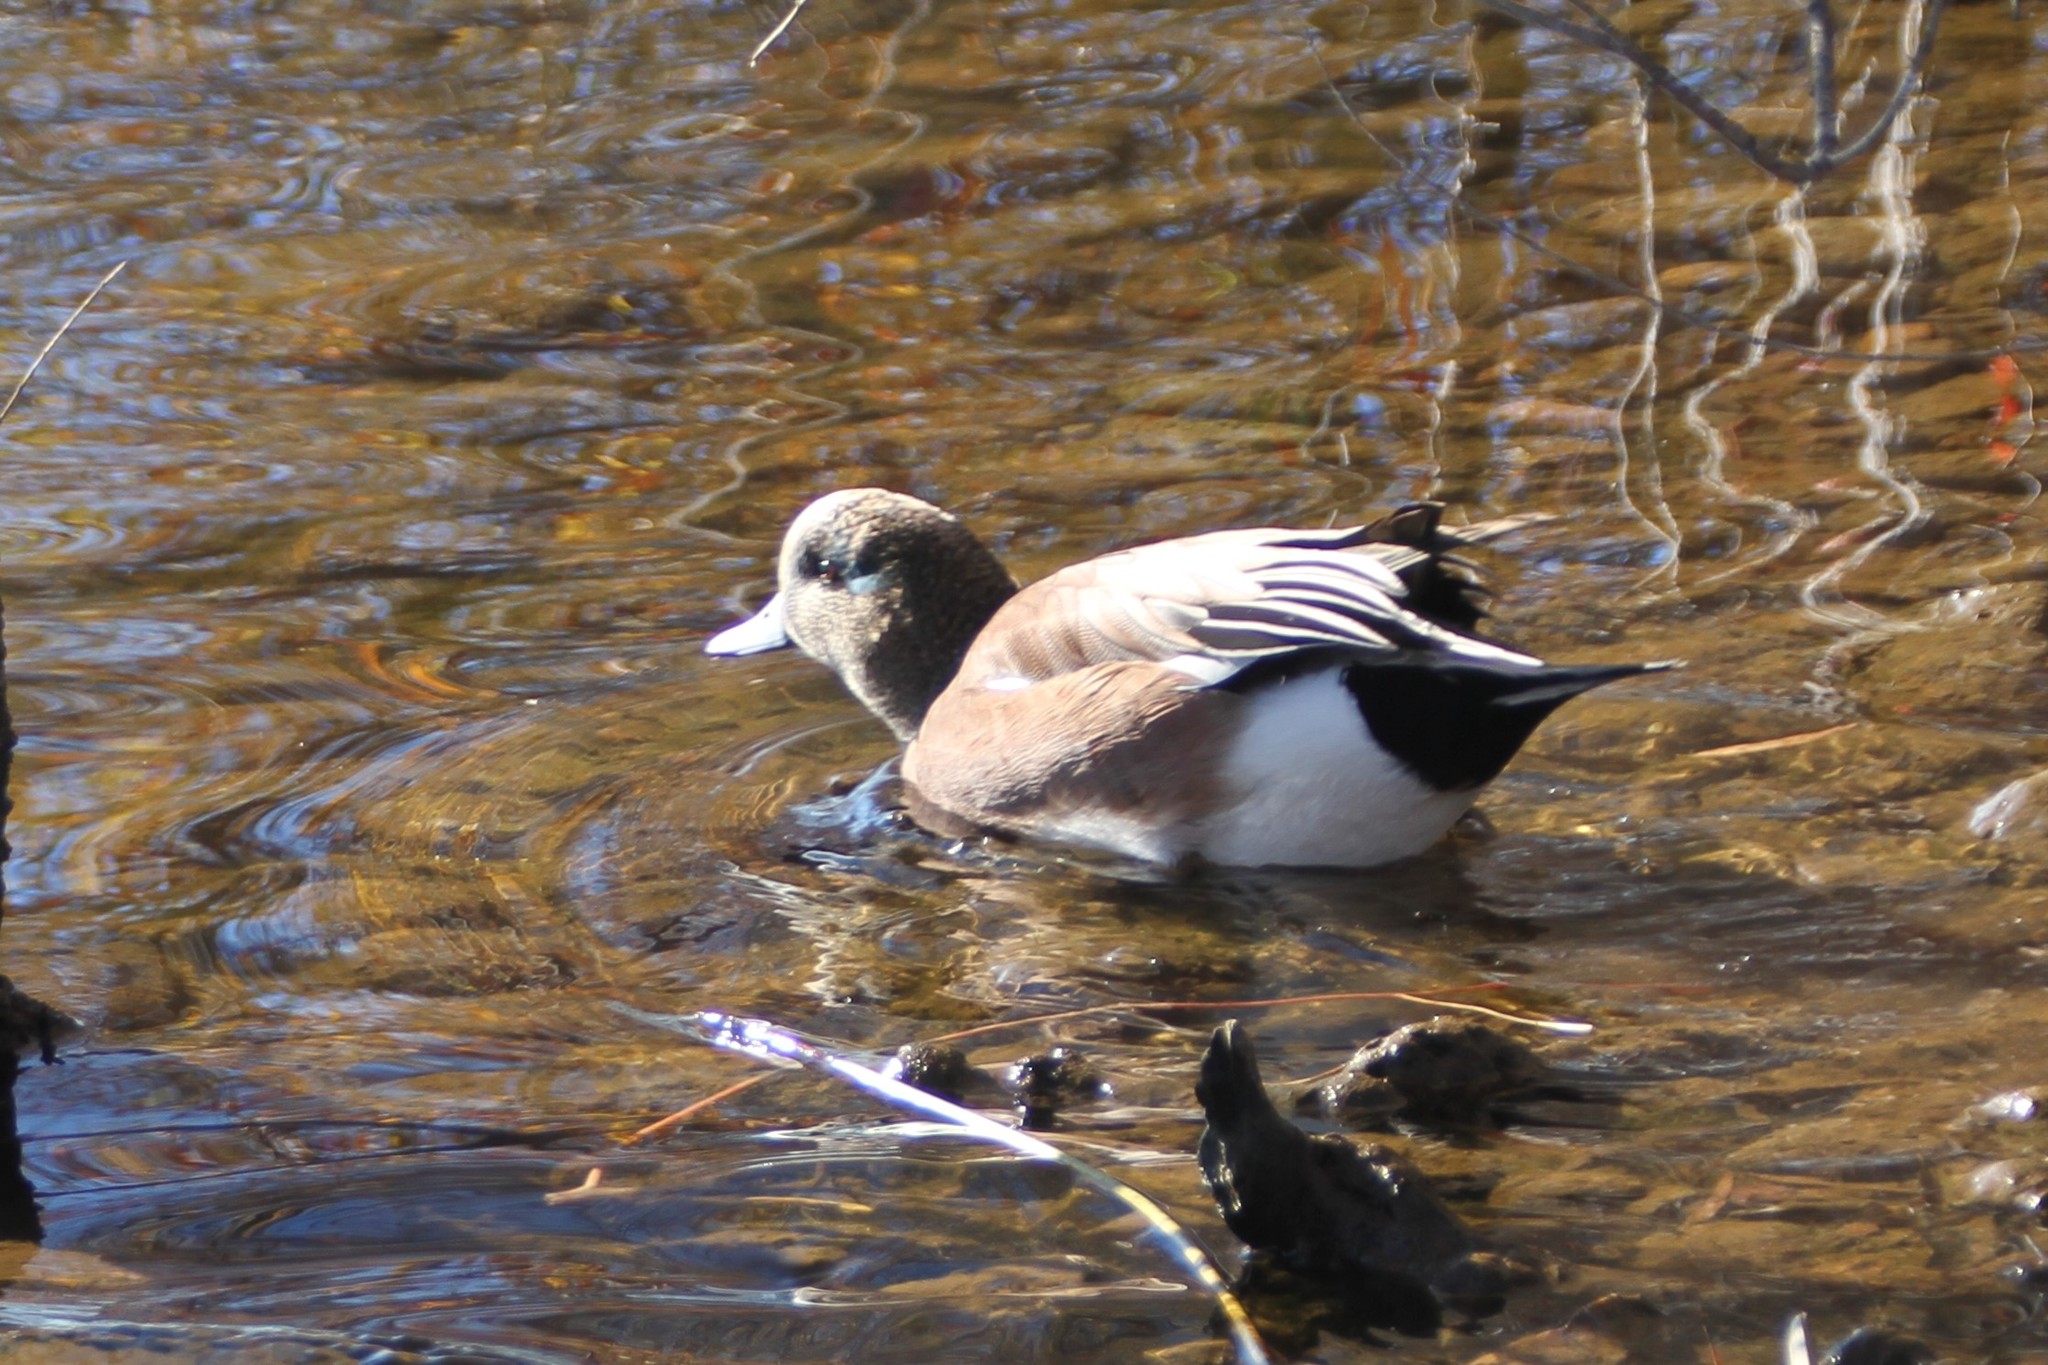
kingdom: Animalia
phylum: Chordata
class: Aves
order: Anseriformes
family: Anatidae
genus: Mareca
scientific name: Mareca americana
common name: American wigeon
